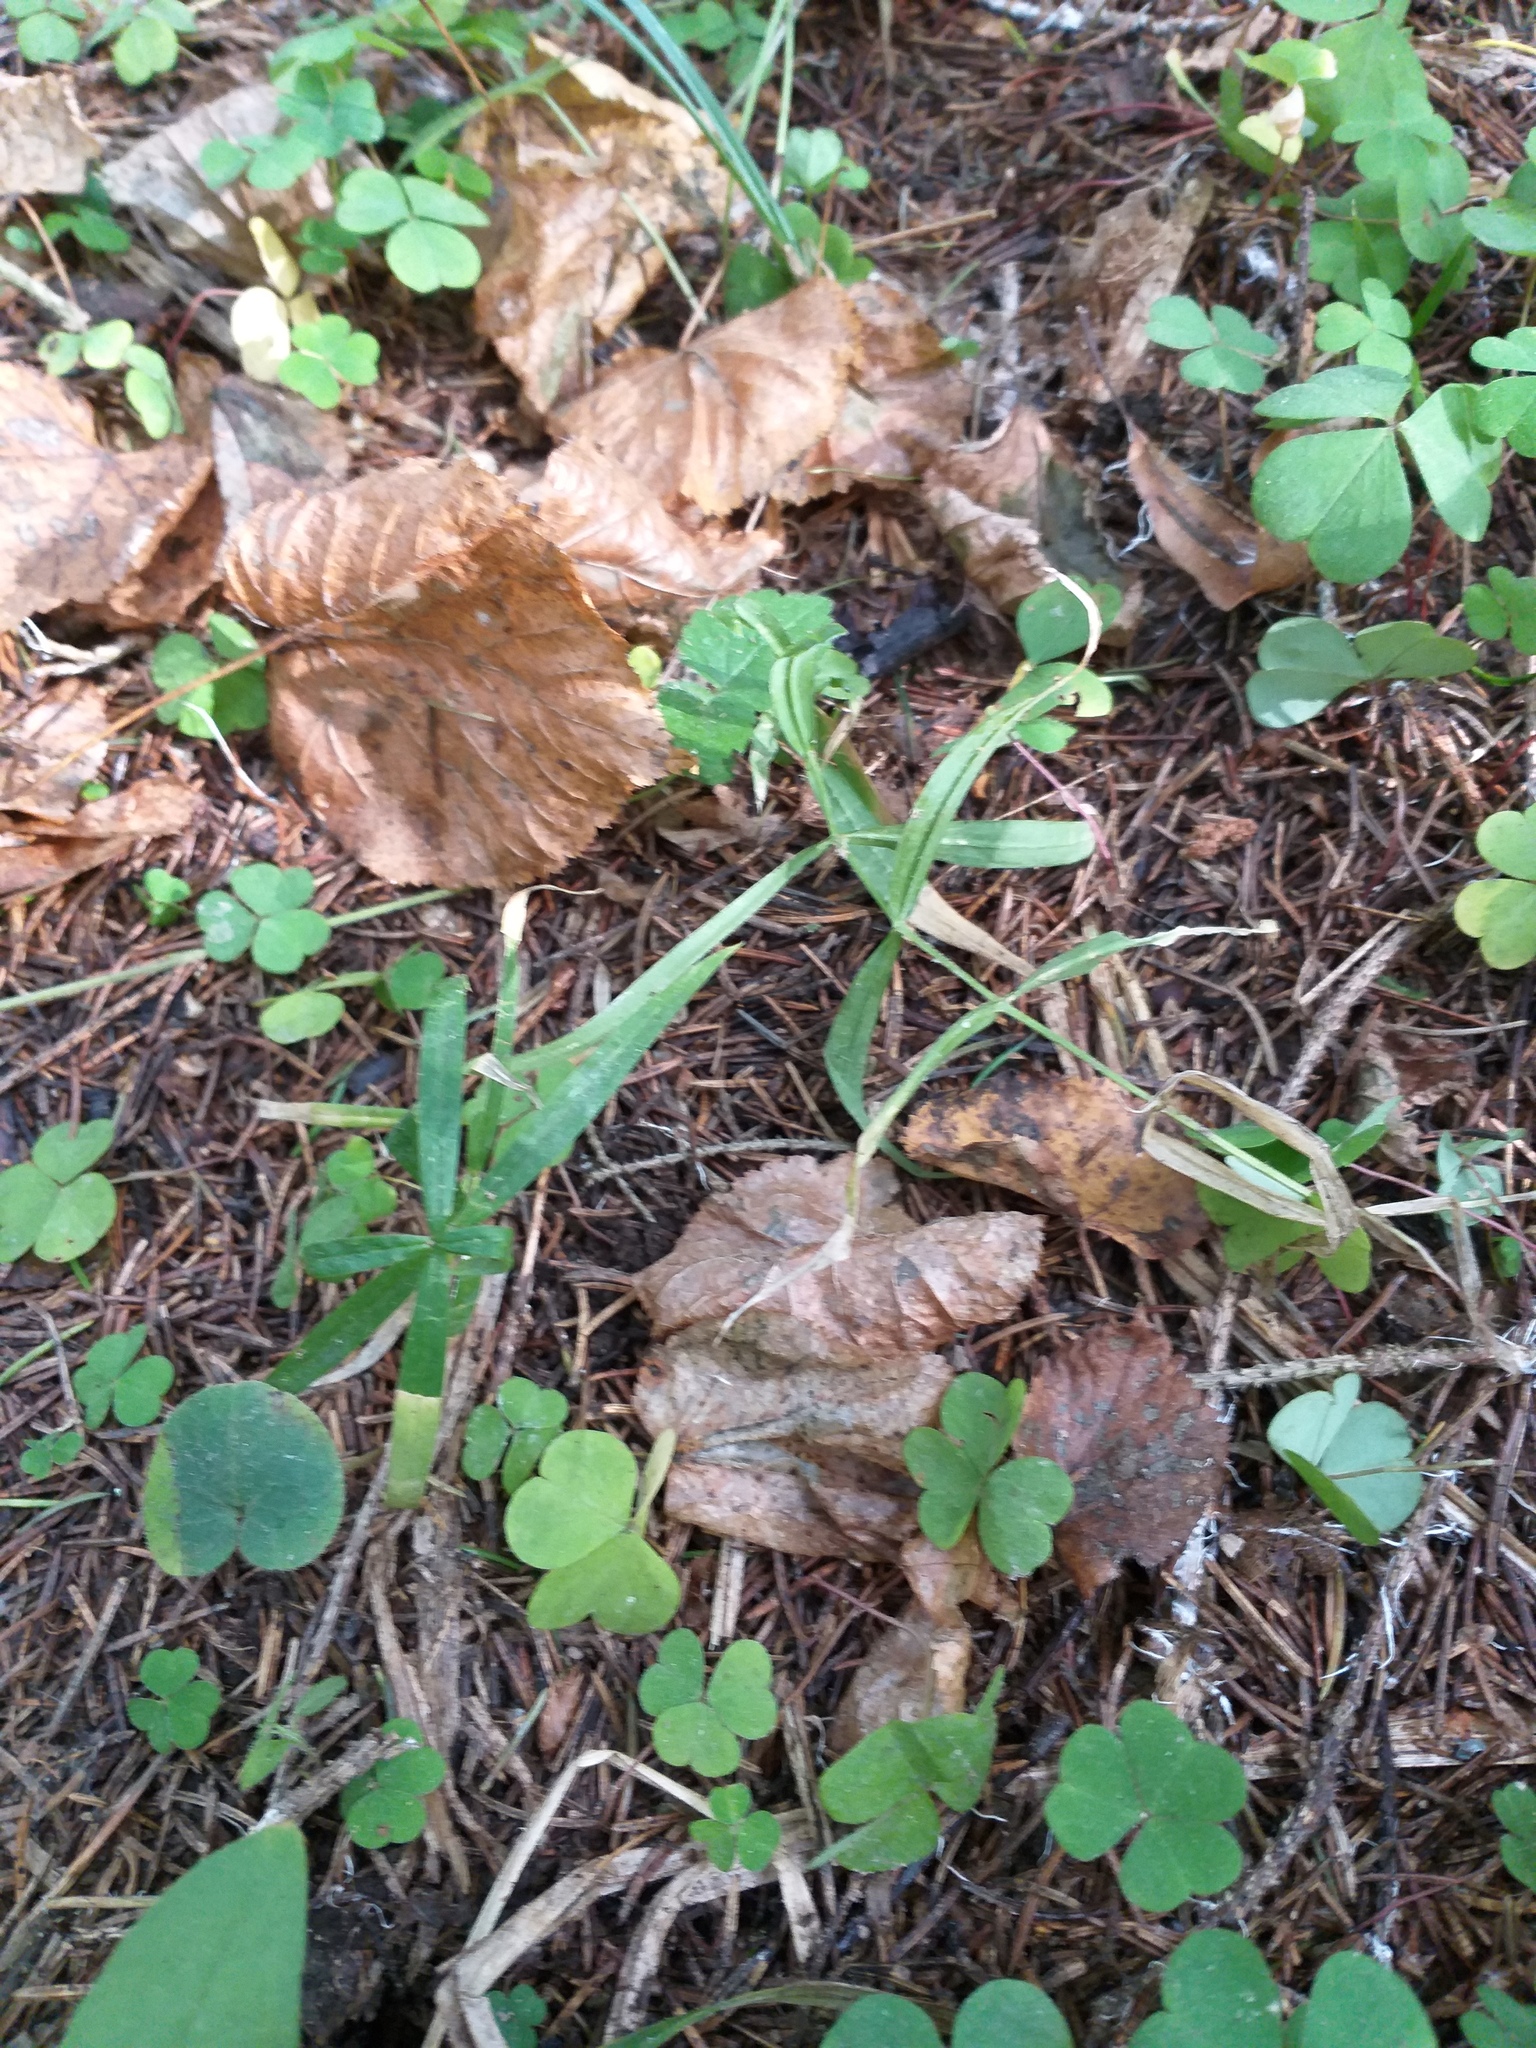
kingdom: Plantae
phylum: Tracheophyta
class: Magnoliopsida
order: Caryophyllales
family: Caryophyllaceae
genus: Rabelera
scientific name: Rabelera holostea
